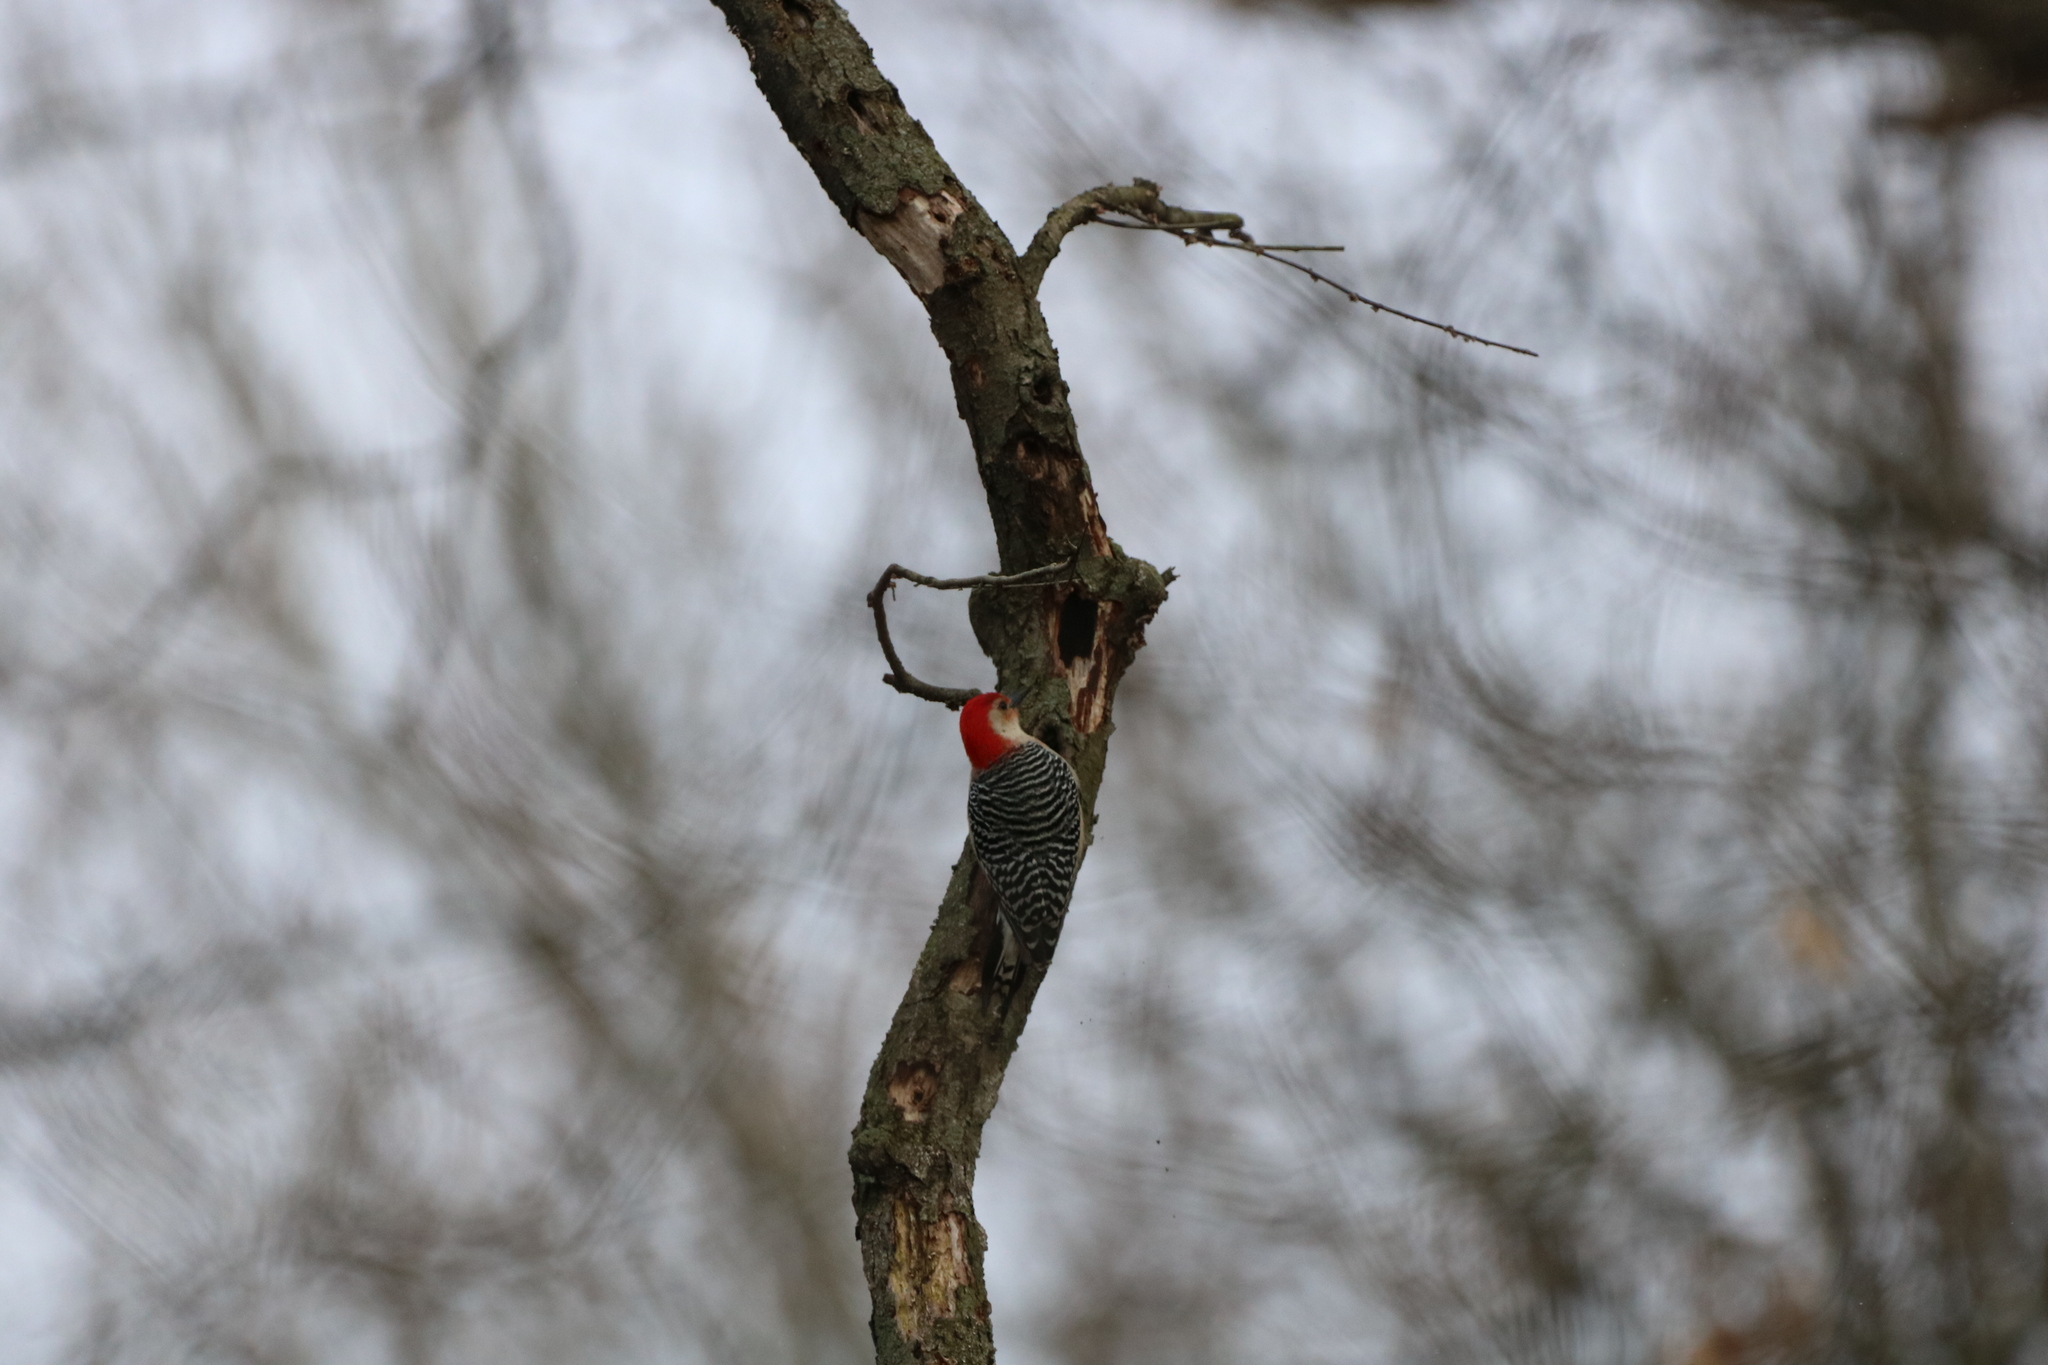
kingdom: Animalia
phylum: Chordata
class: Aves
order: Piciformes
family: Picidae
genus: Melanerpes
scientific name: Melanerpes carolinus
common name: Red-bellied woodpecker
